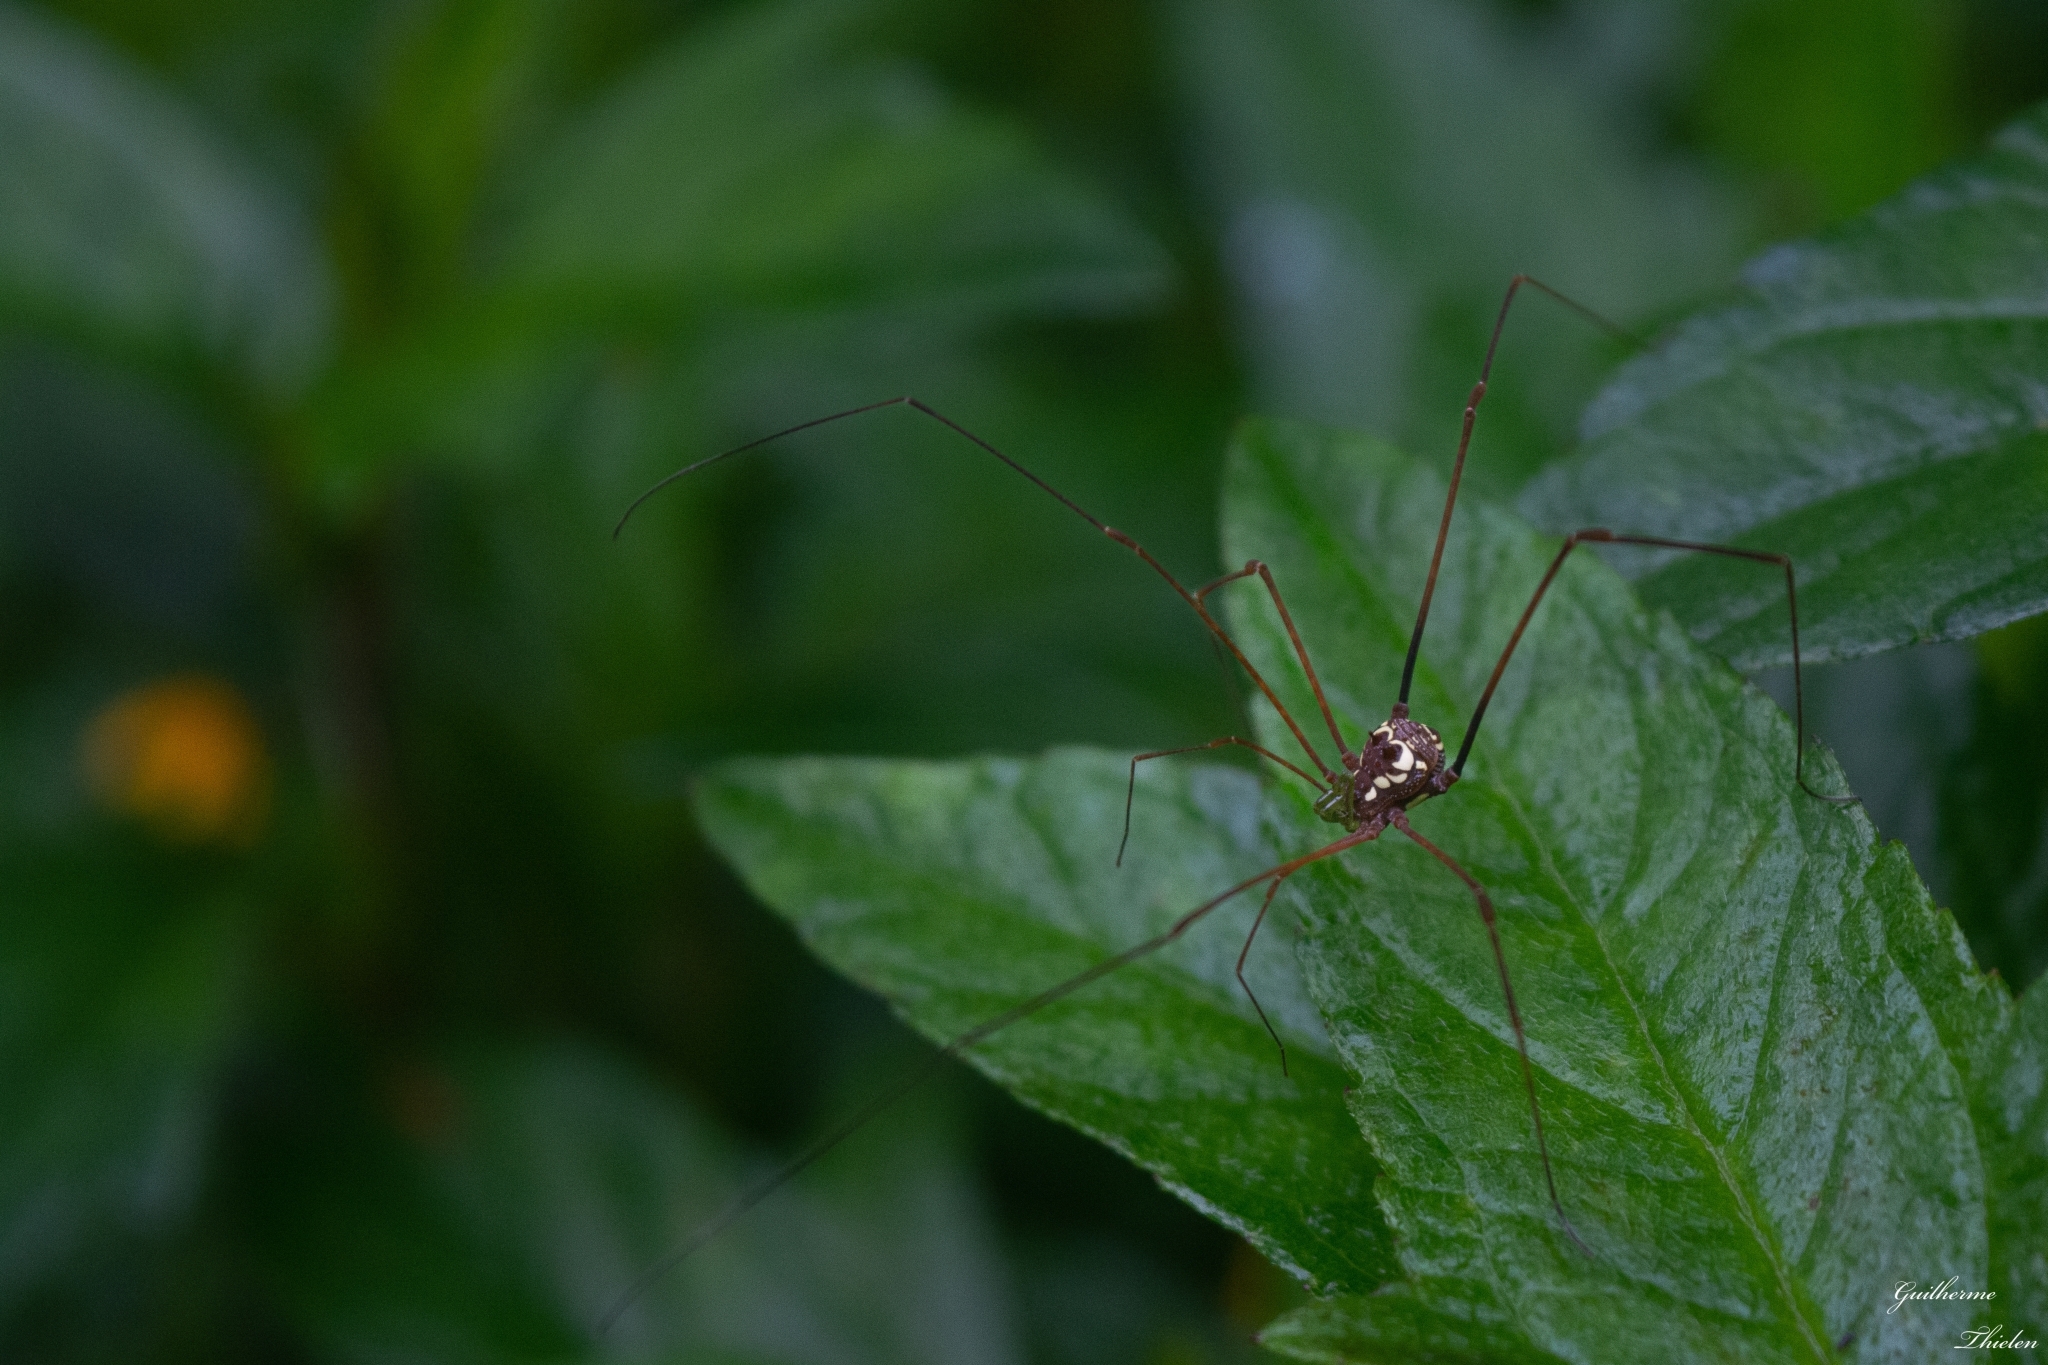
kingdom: Animalia
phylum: Arthropoda
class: Arachnida
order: Opiliones
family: Gonyleptidae
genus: Thereza
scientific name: Thereza speciosa
